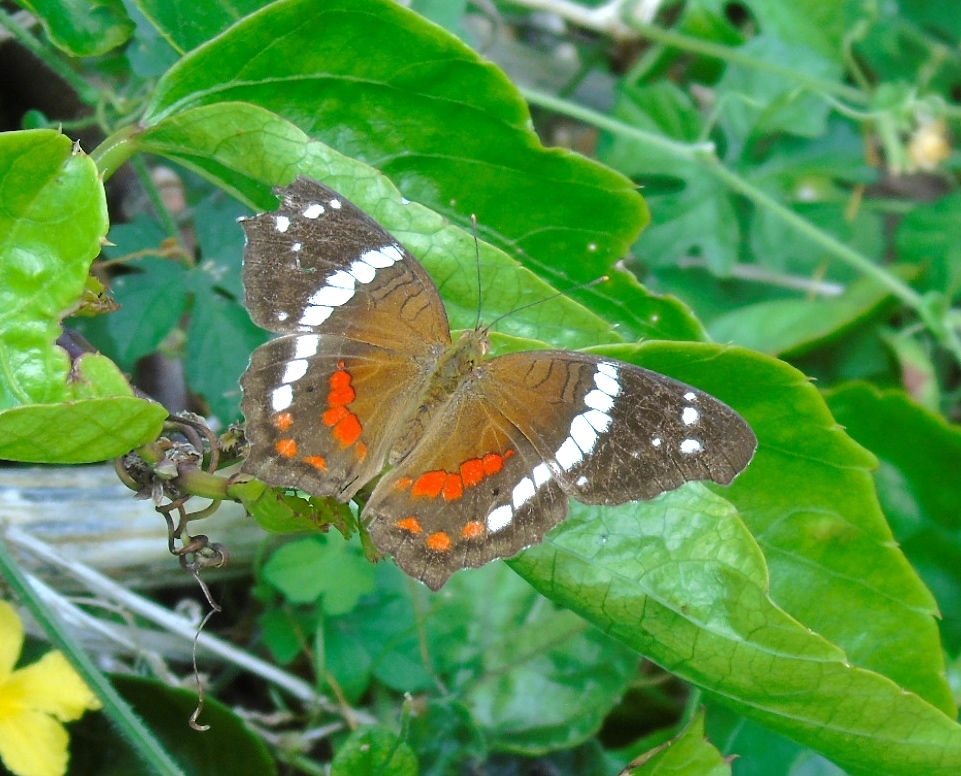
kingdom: Animalia
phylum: Arthropoda
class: Insecta
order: Lepidoptera
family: Nymphalidae
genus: Anartia
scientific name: Anartia fatima
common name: Banded peacock
